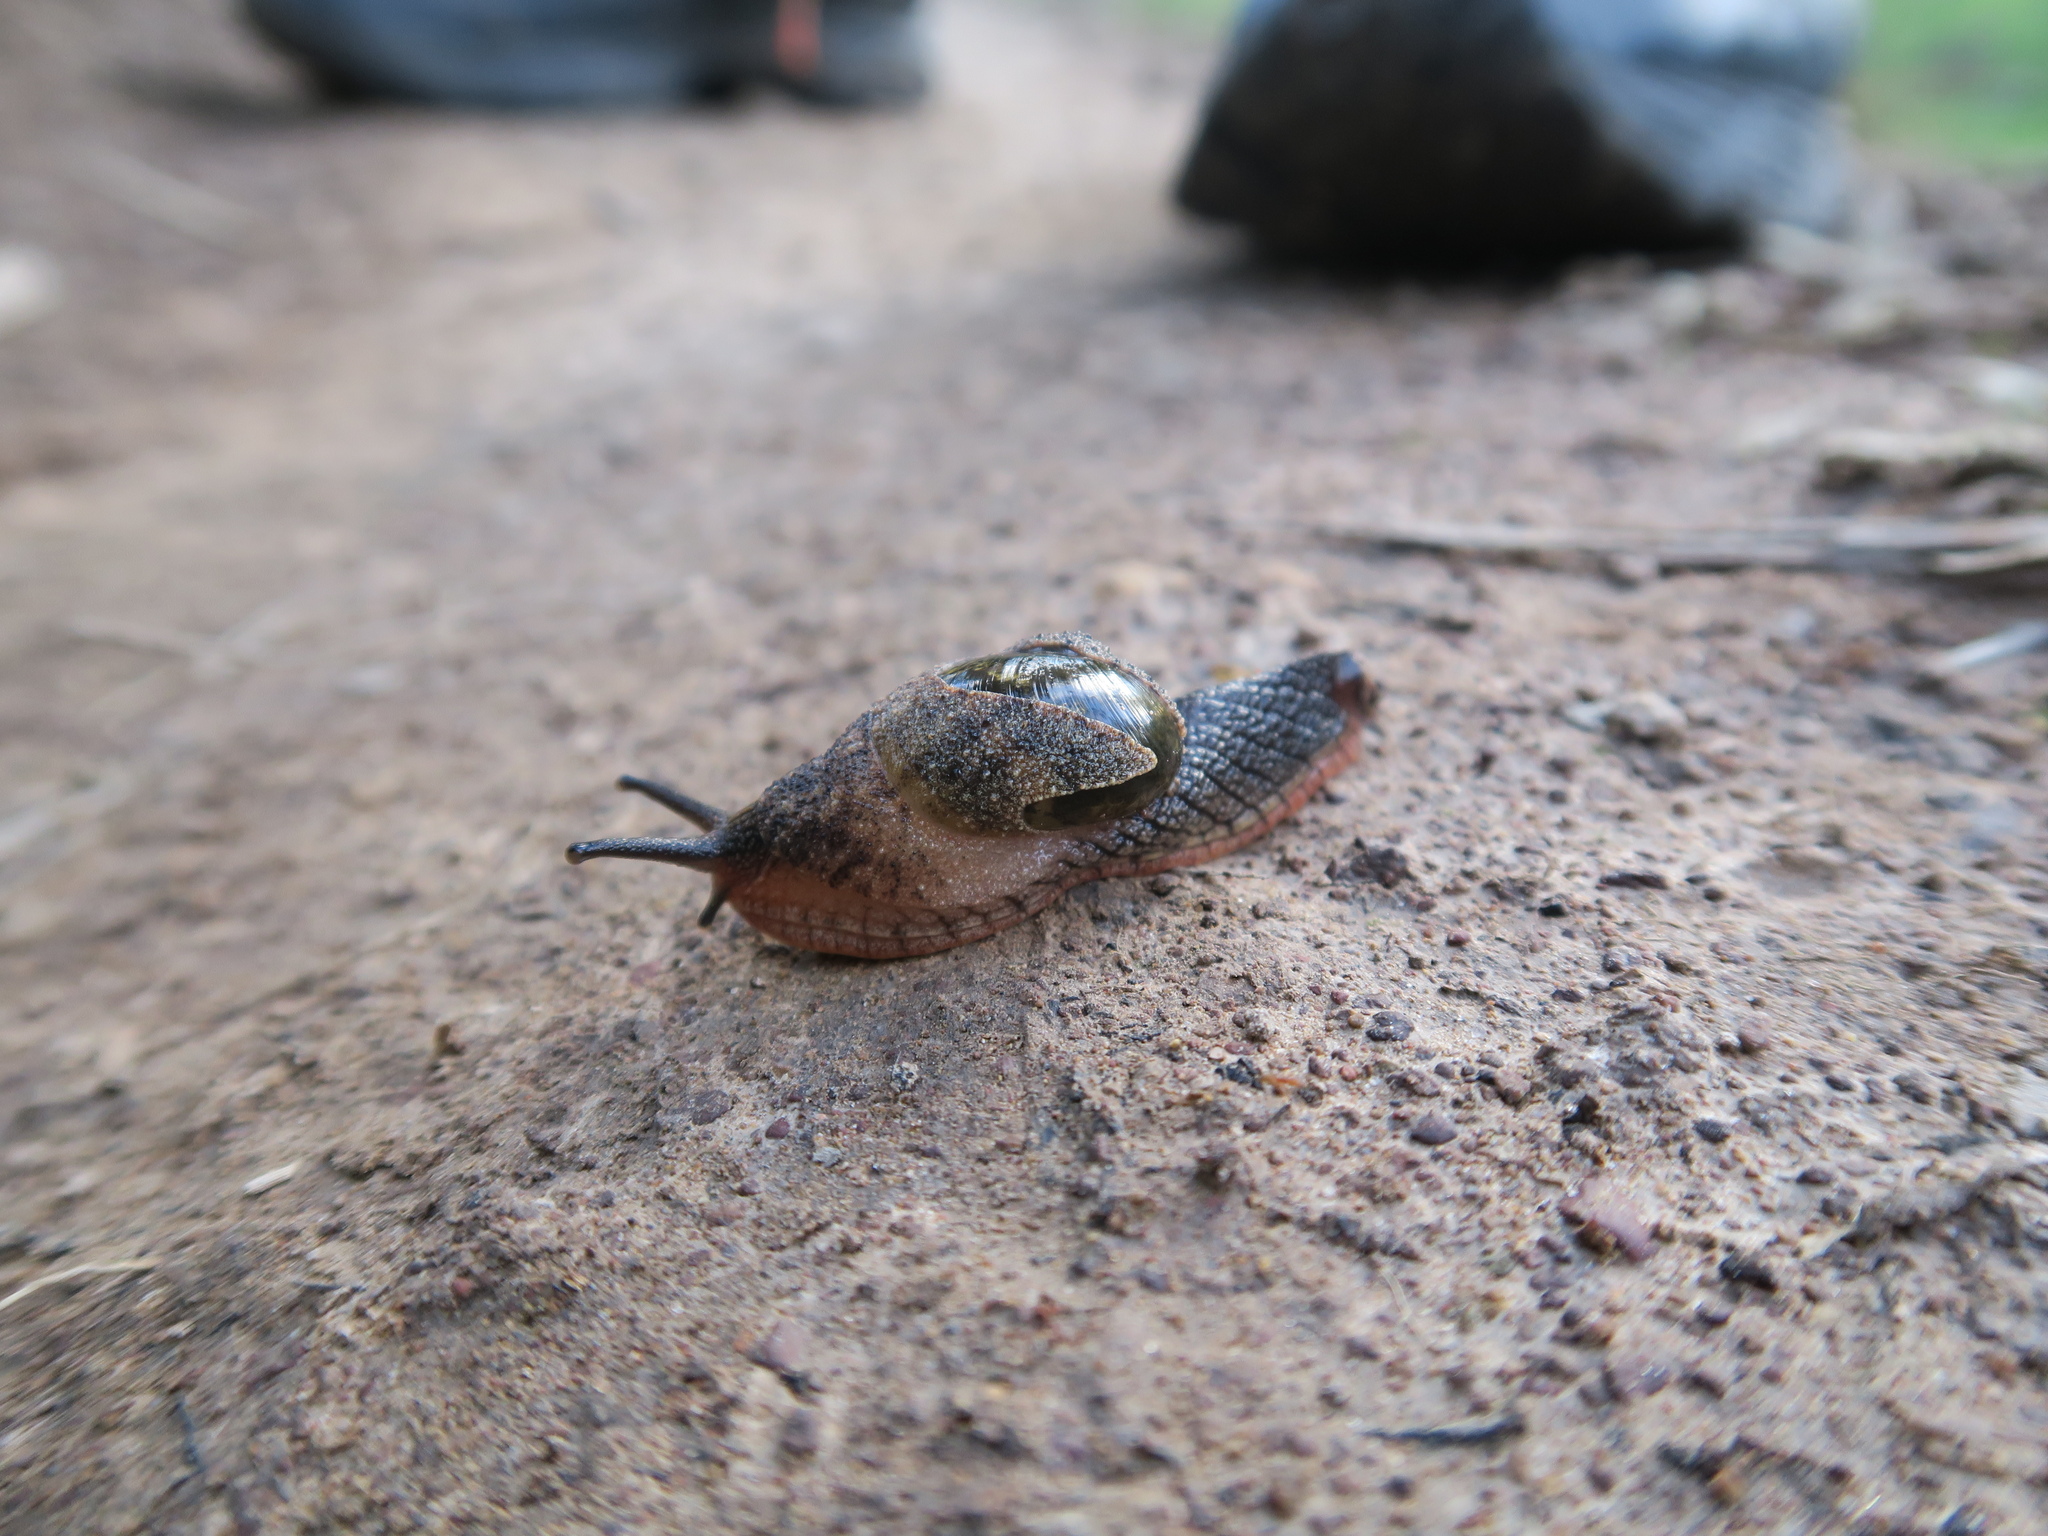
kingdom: Animalia
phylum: Mollusca
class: Gastropoda
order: Stylommatophora
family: Helicarionidae
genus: Stanisicarion
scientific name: Stanisicarion freycineti
